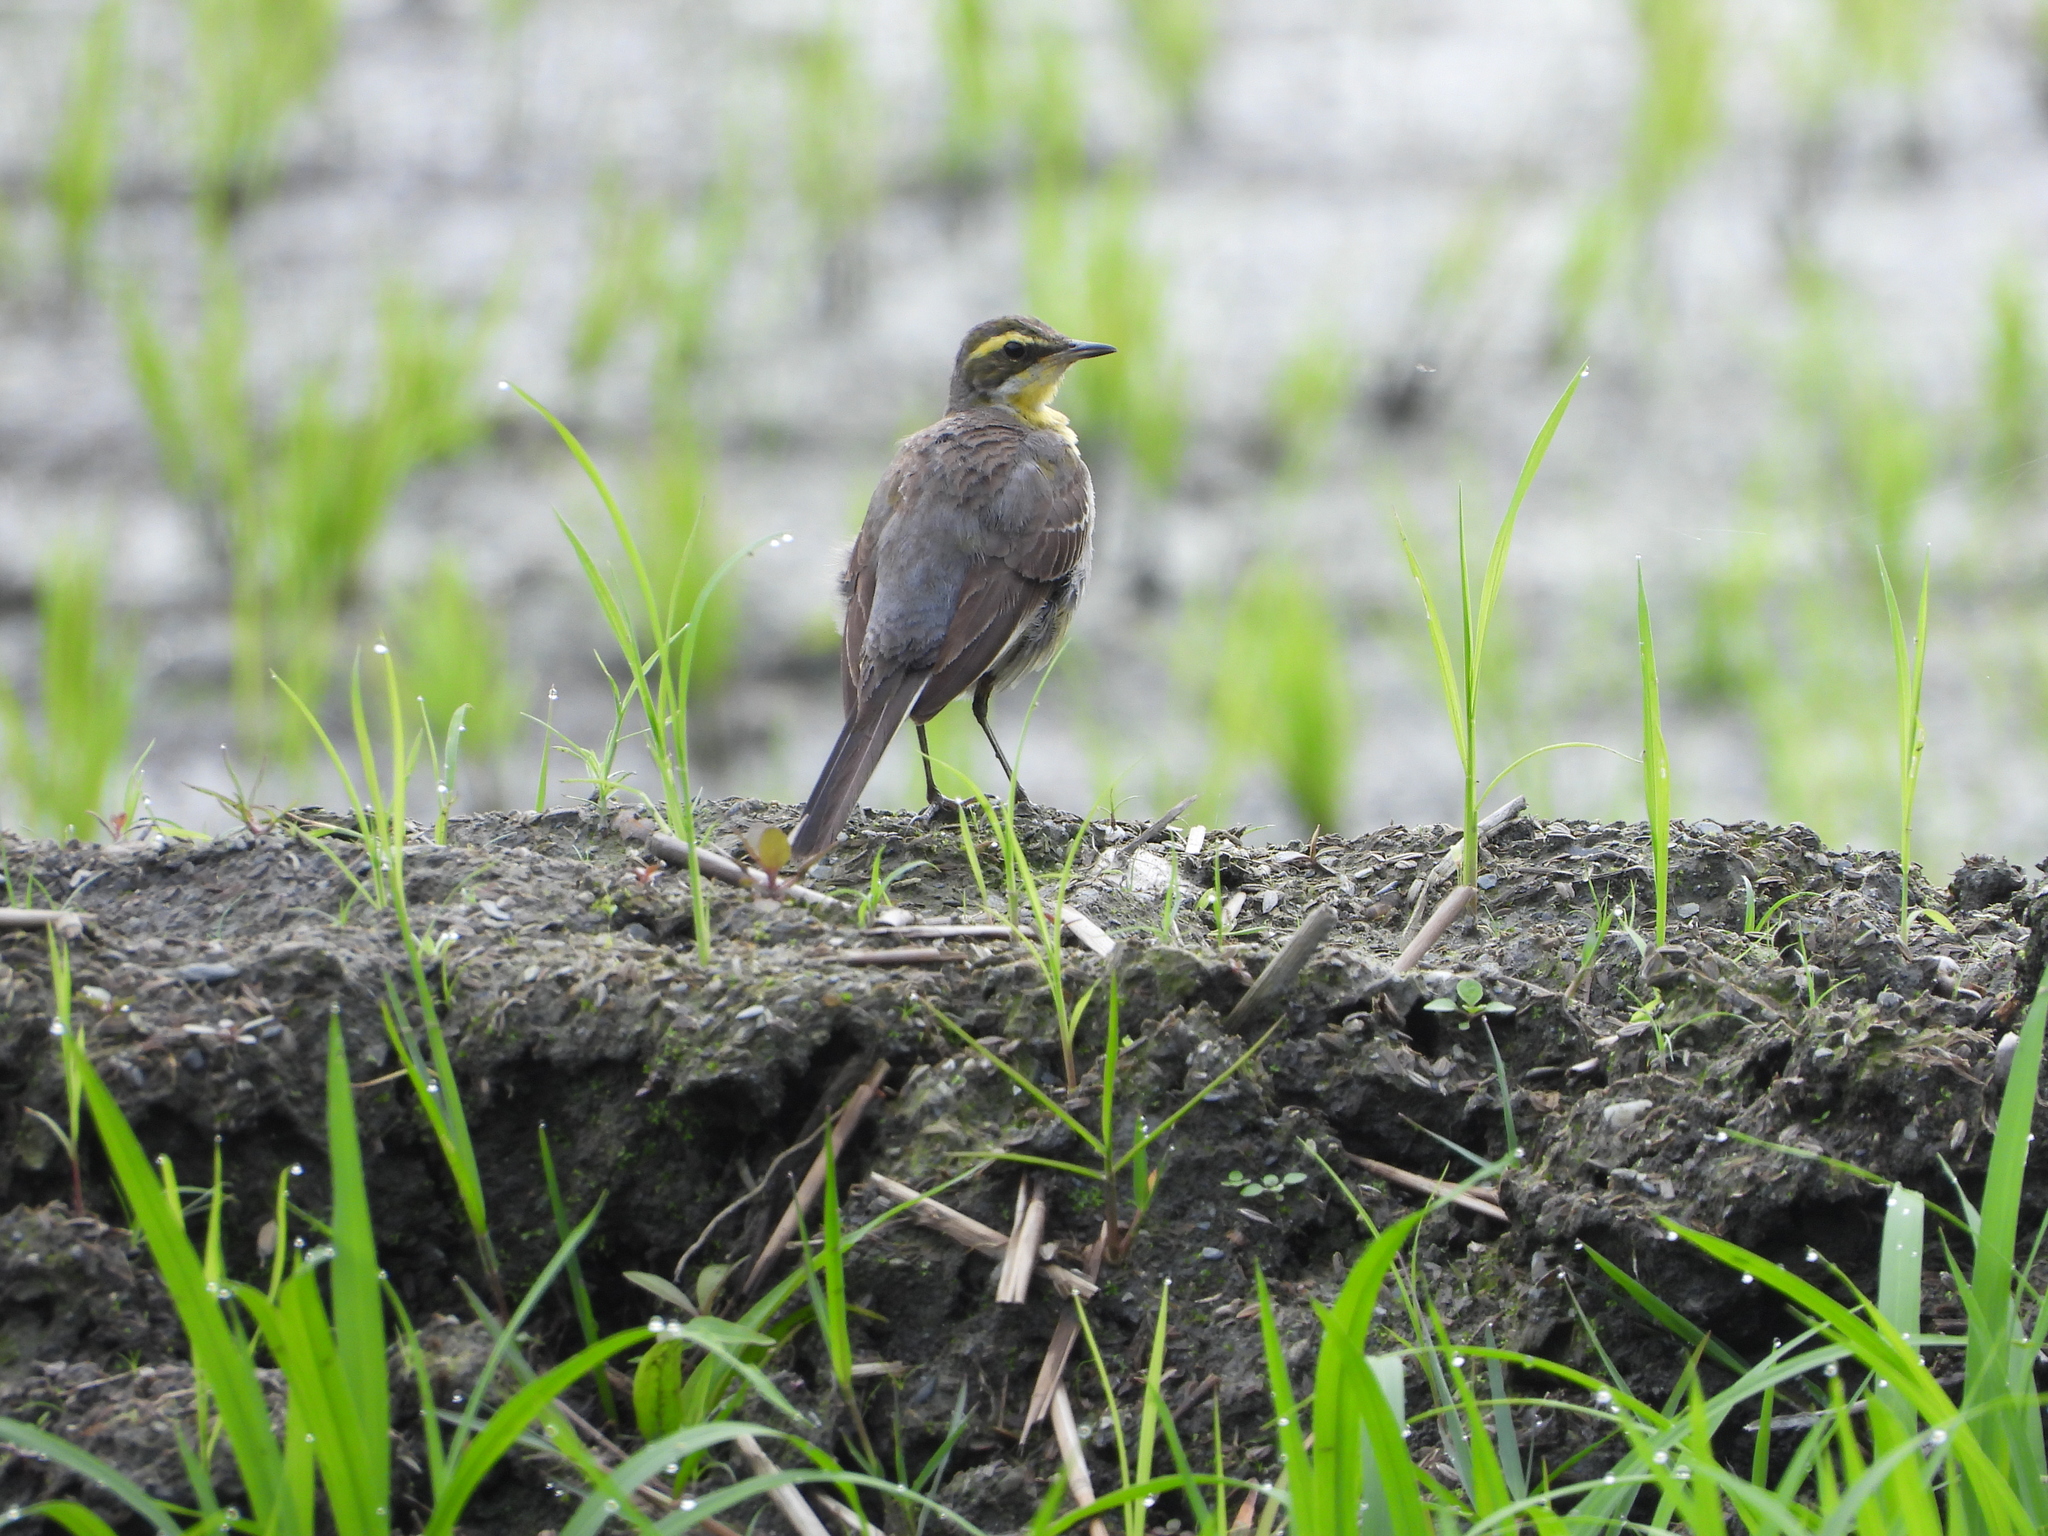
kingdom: Animalia
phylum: Chordata
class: Aves
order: Passeriformes
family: Motacillidae
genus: Motacilla
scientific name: Motacilla tschutschensis
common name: Eastern yellow wagtail
